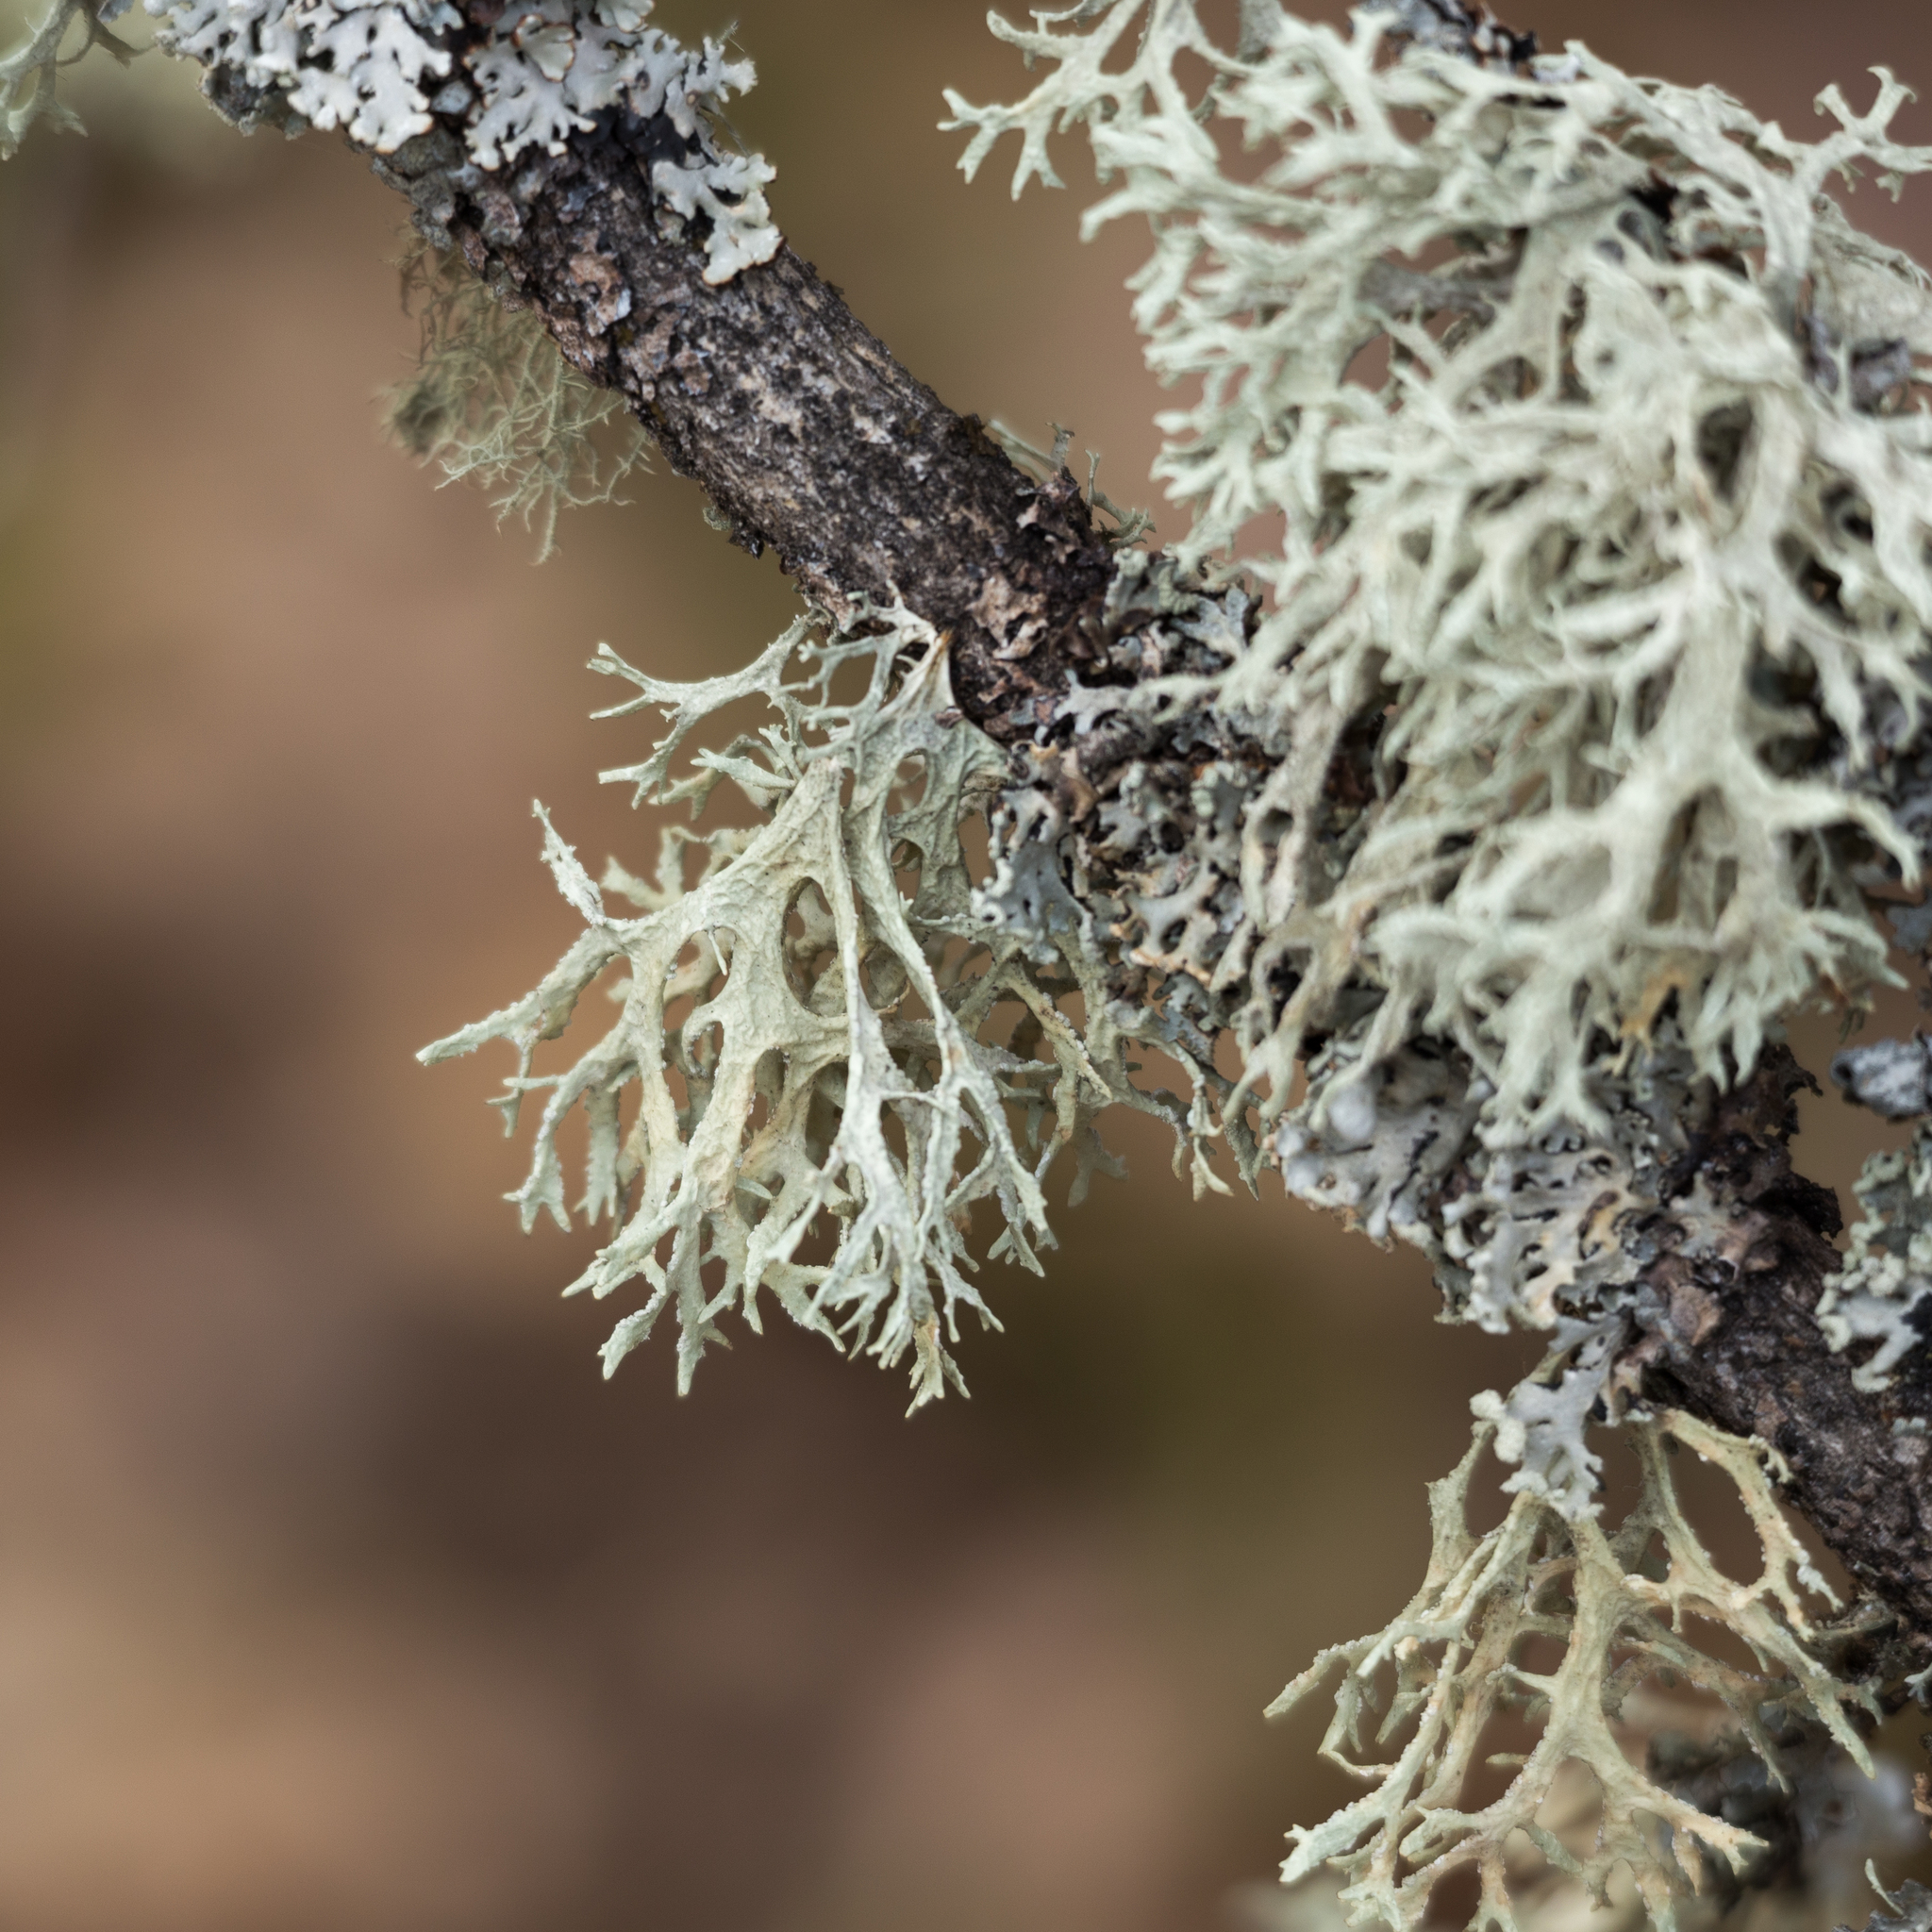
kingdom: Fungi
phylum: Ascomycota
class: Lecanoromycetes
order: Lecanorales
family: Parmeliaceae
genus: Evernia
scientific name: Evernia prunastri
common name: Oak moss
